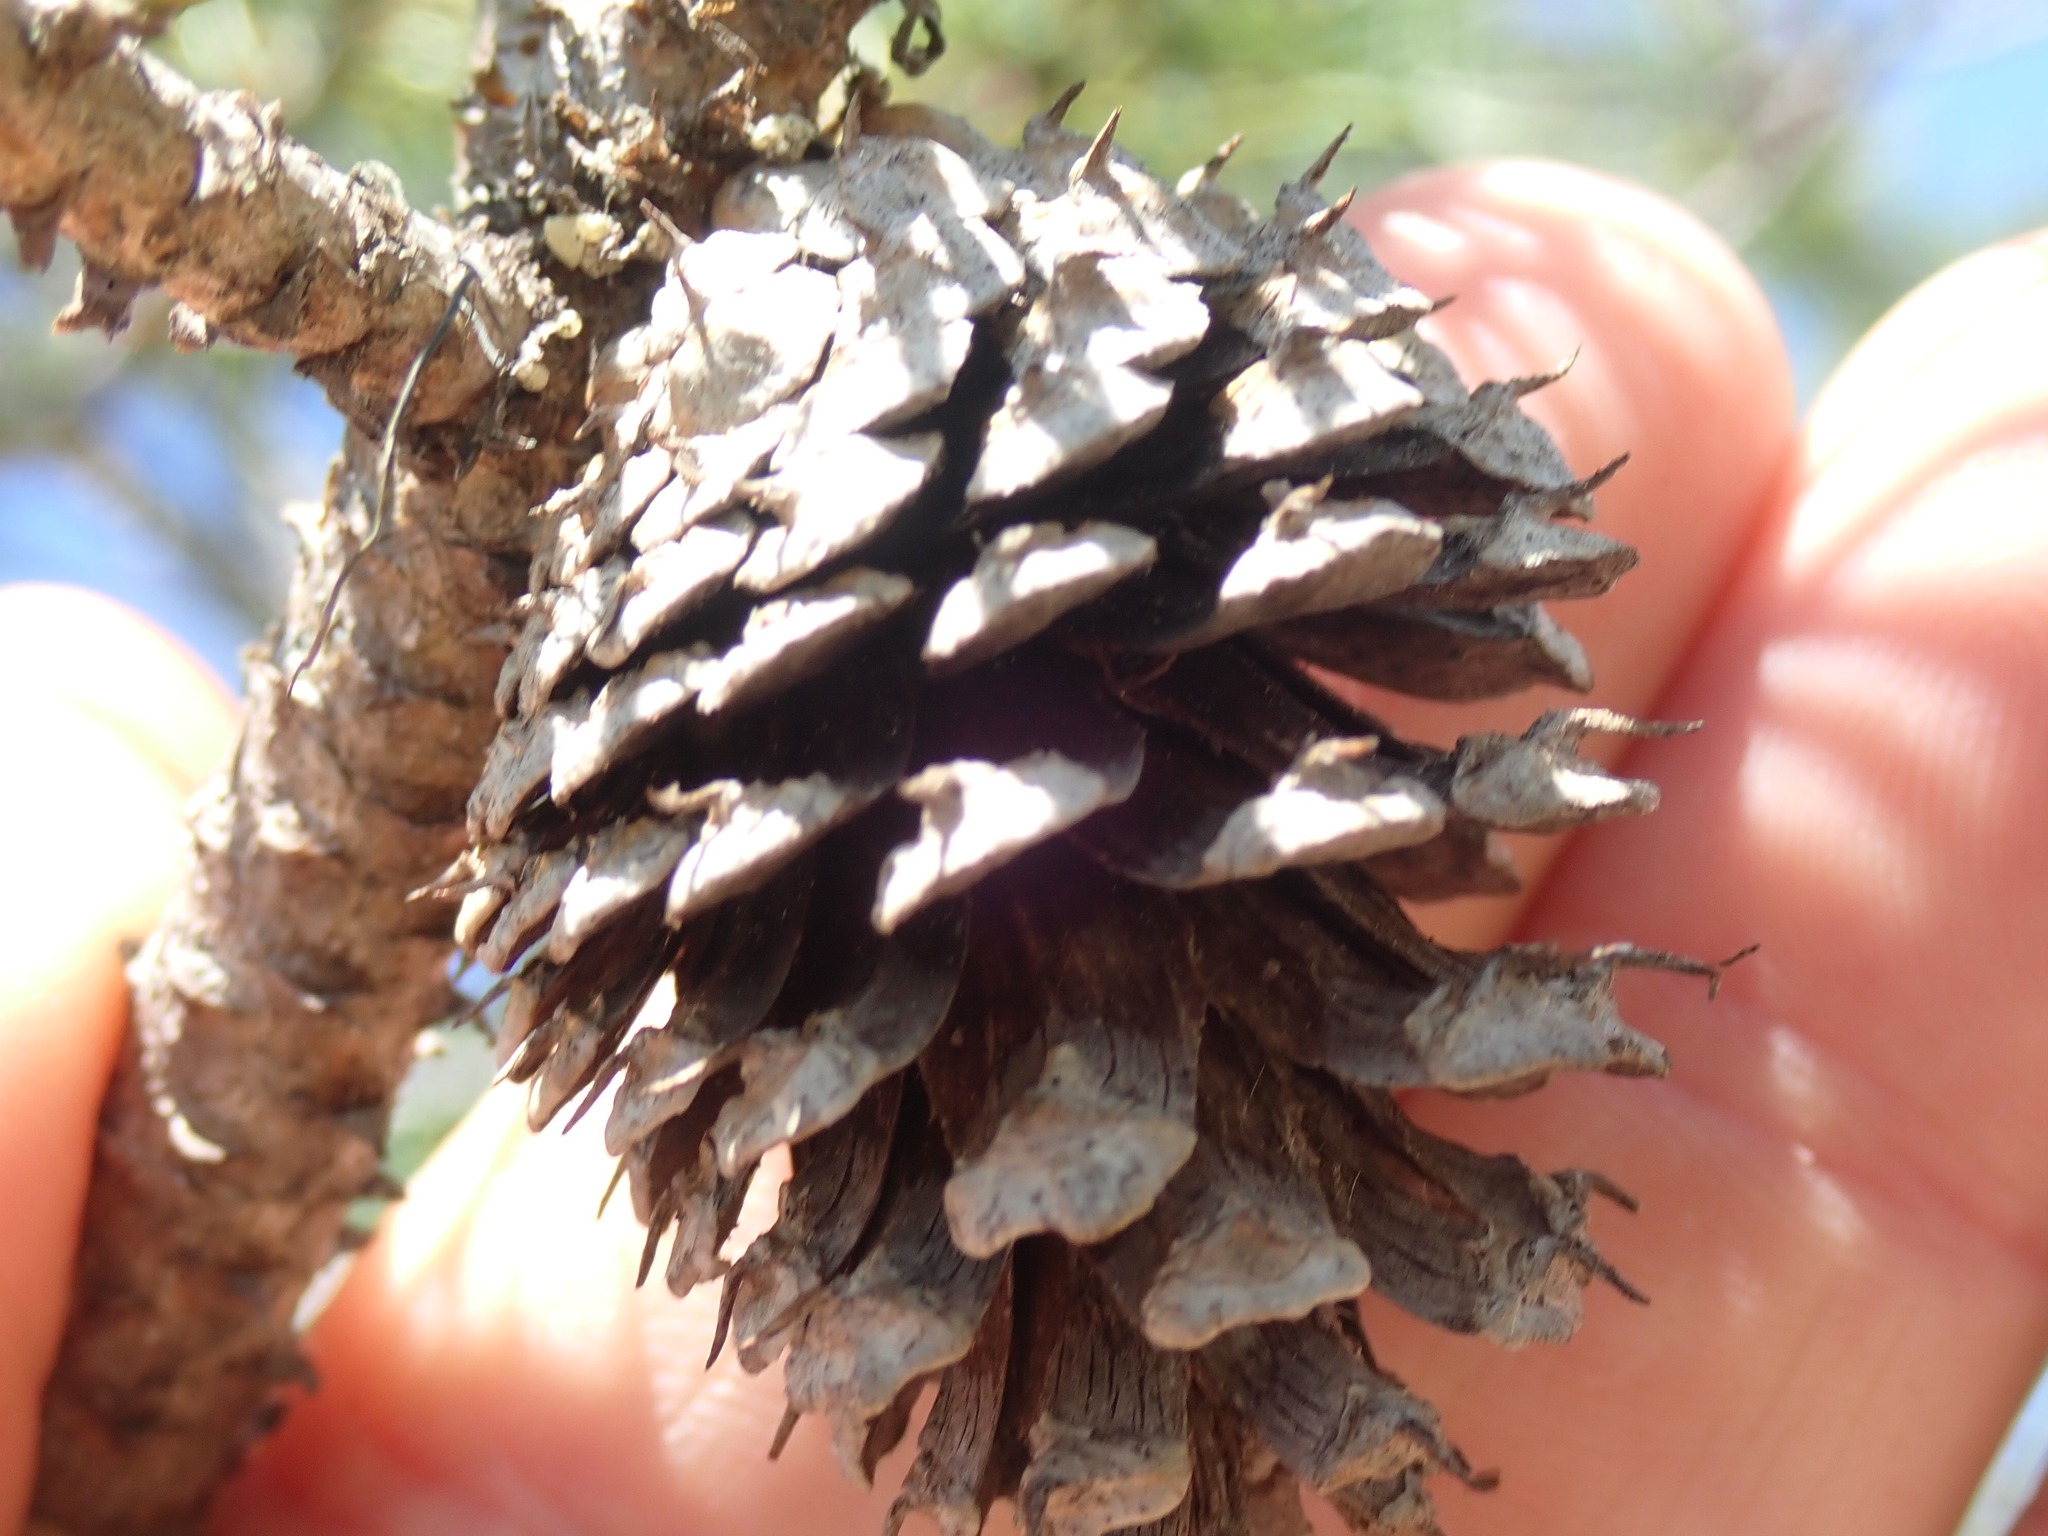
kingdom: Plantae
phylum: Tracheophyta
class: Pinopsida
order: Pinales
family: Pinaceae
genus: Pinus
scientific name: Pinus contorta
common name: Lodgepole pine
